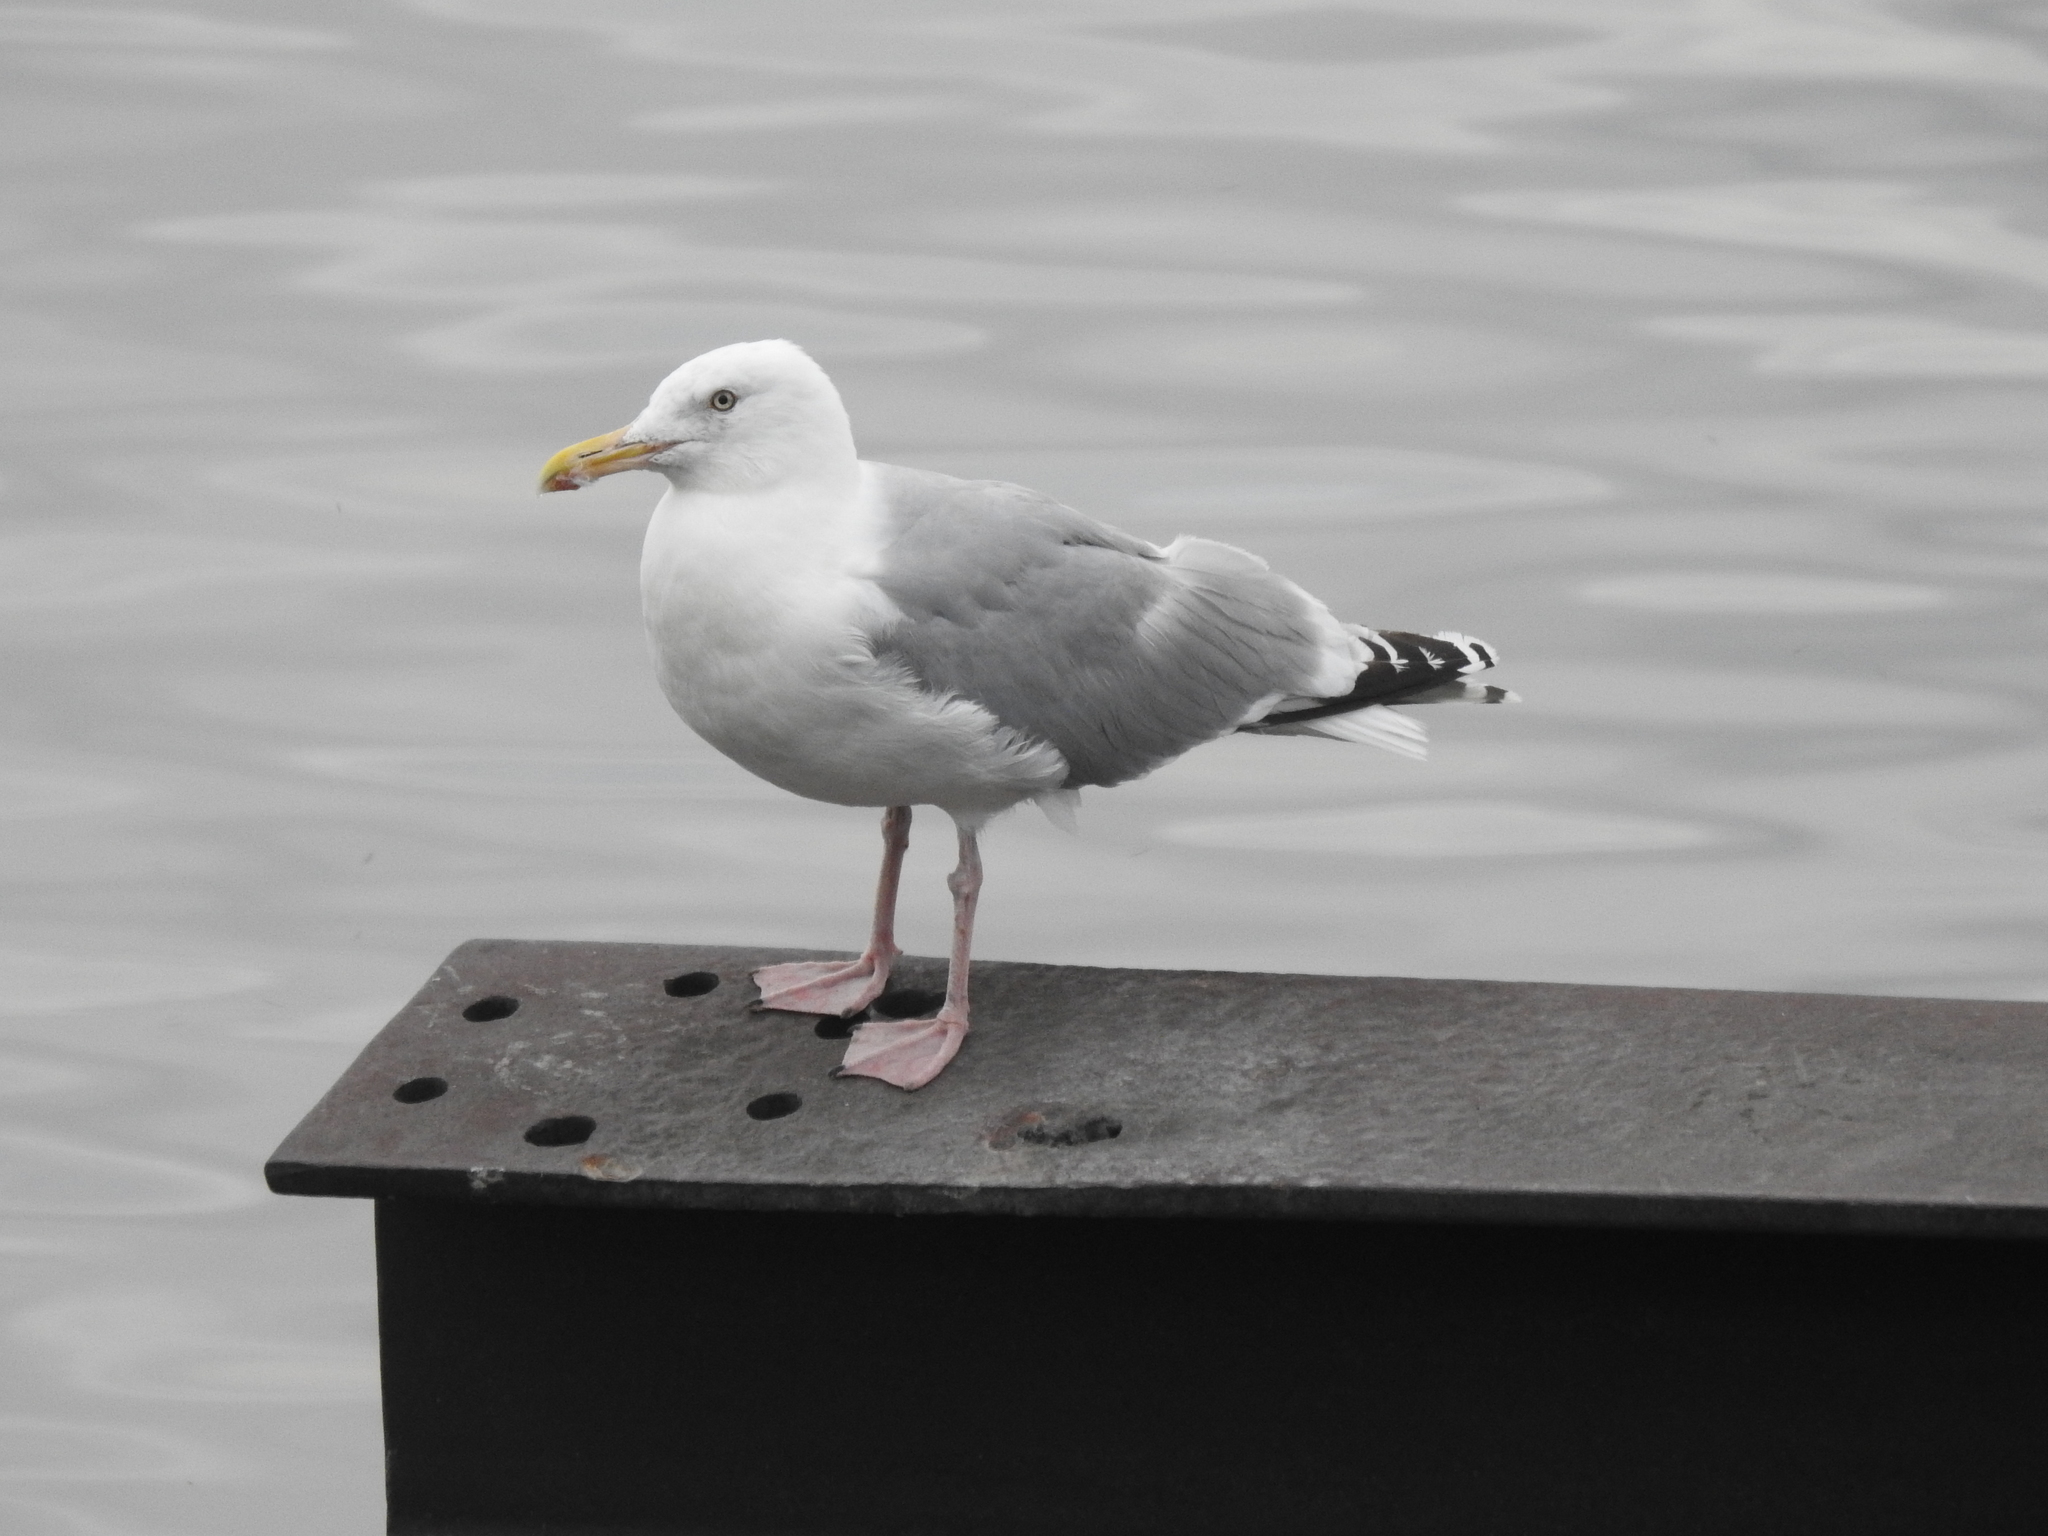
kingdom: Animalia
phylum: Chordata
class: Aves
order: Charadriiformes
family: Laridae
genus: Larus
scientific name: Larus argentatus
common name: Herring gull
